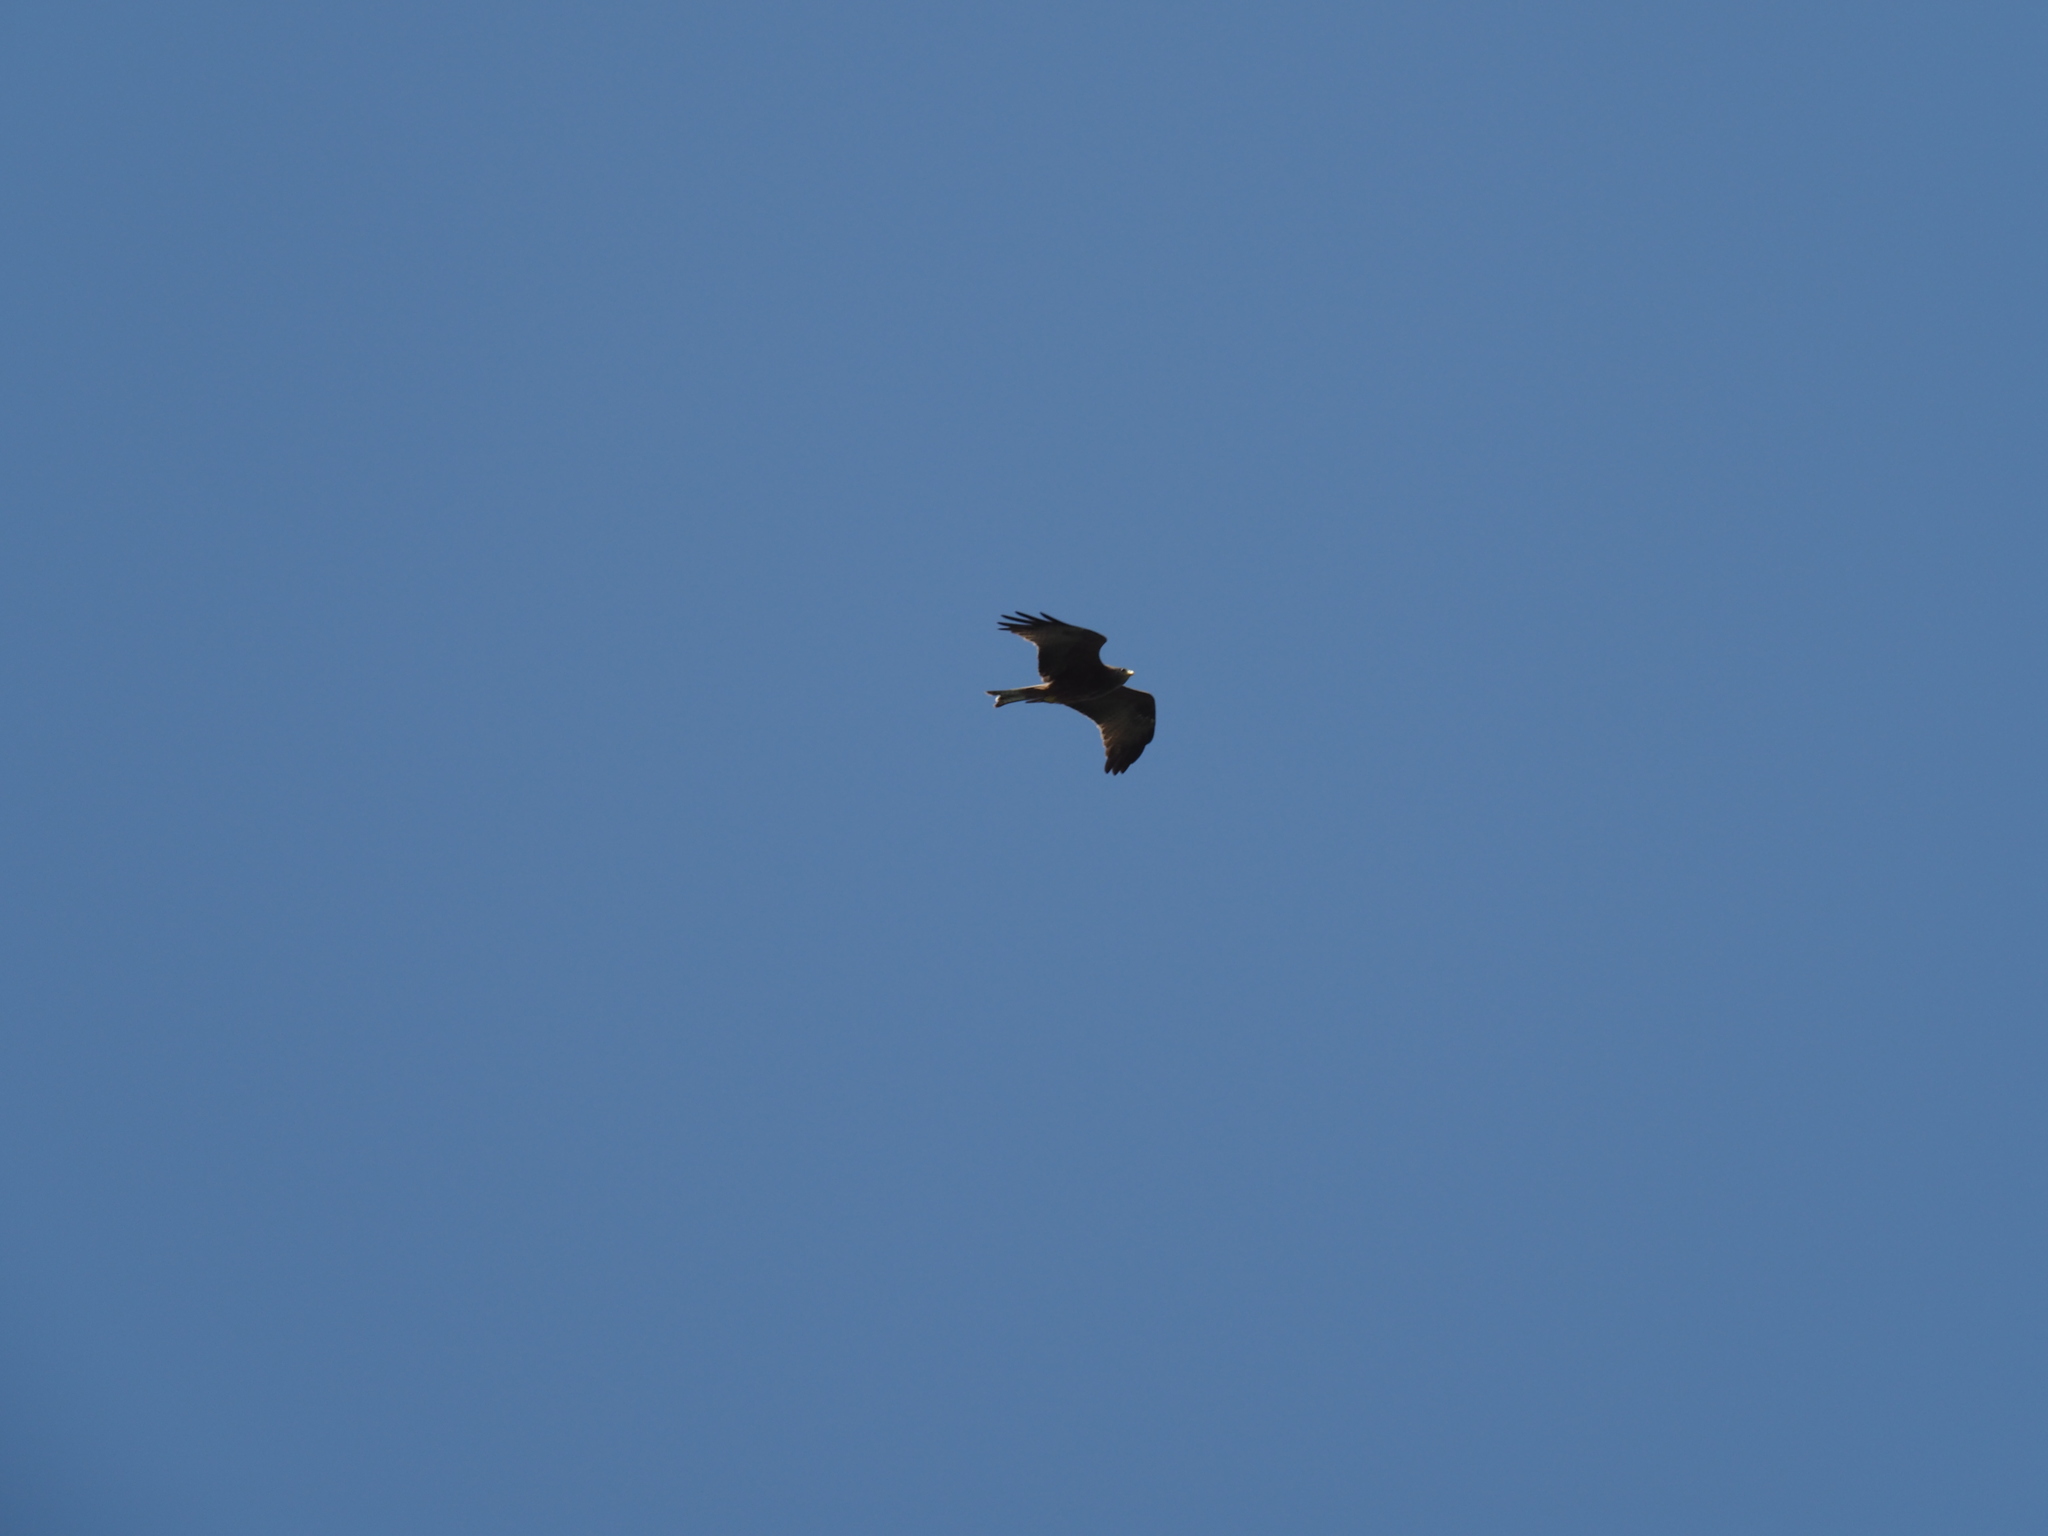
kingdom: Animalia
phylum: Chordata
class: Aves
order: Accipitriformes
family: Accipitridae
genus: Milvus
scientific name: Milvus migrans
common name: Black kite
